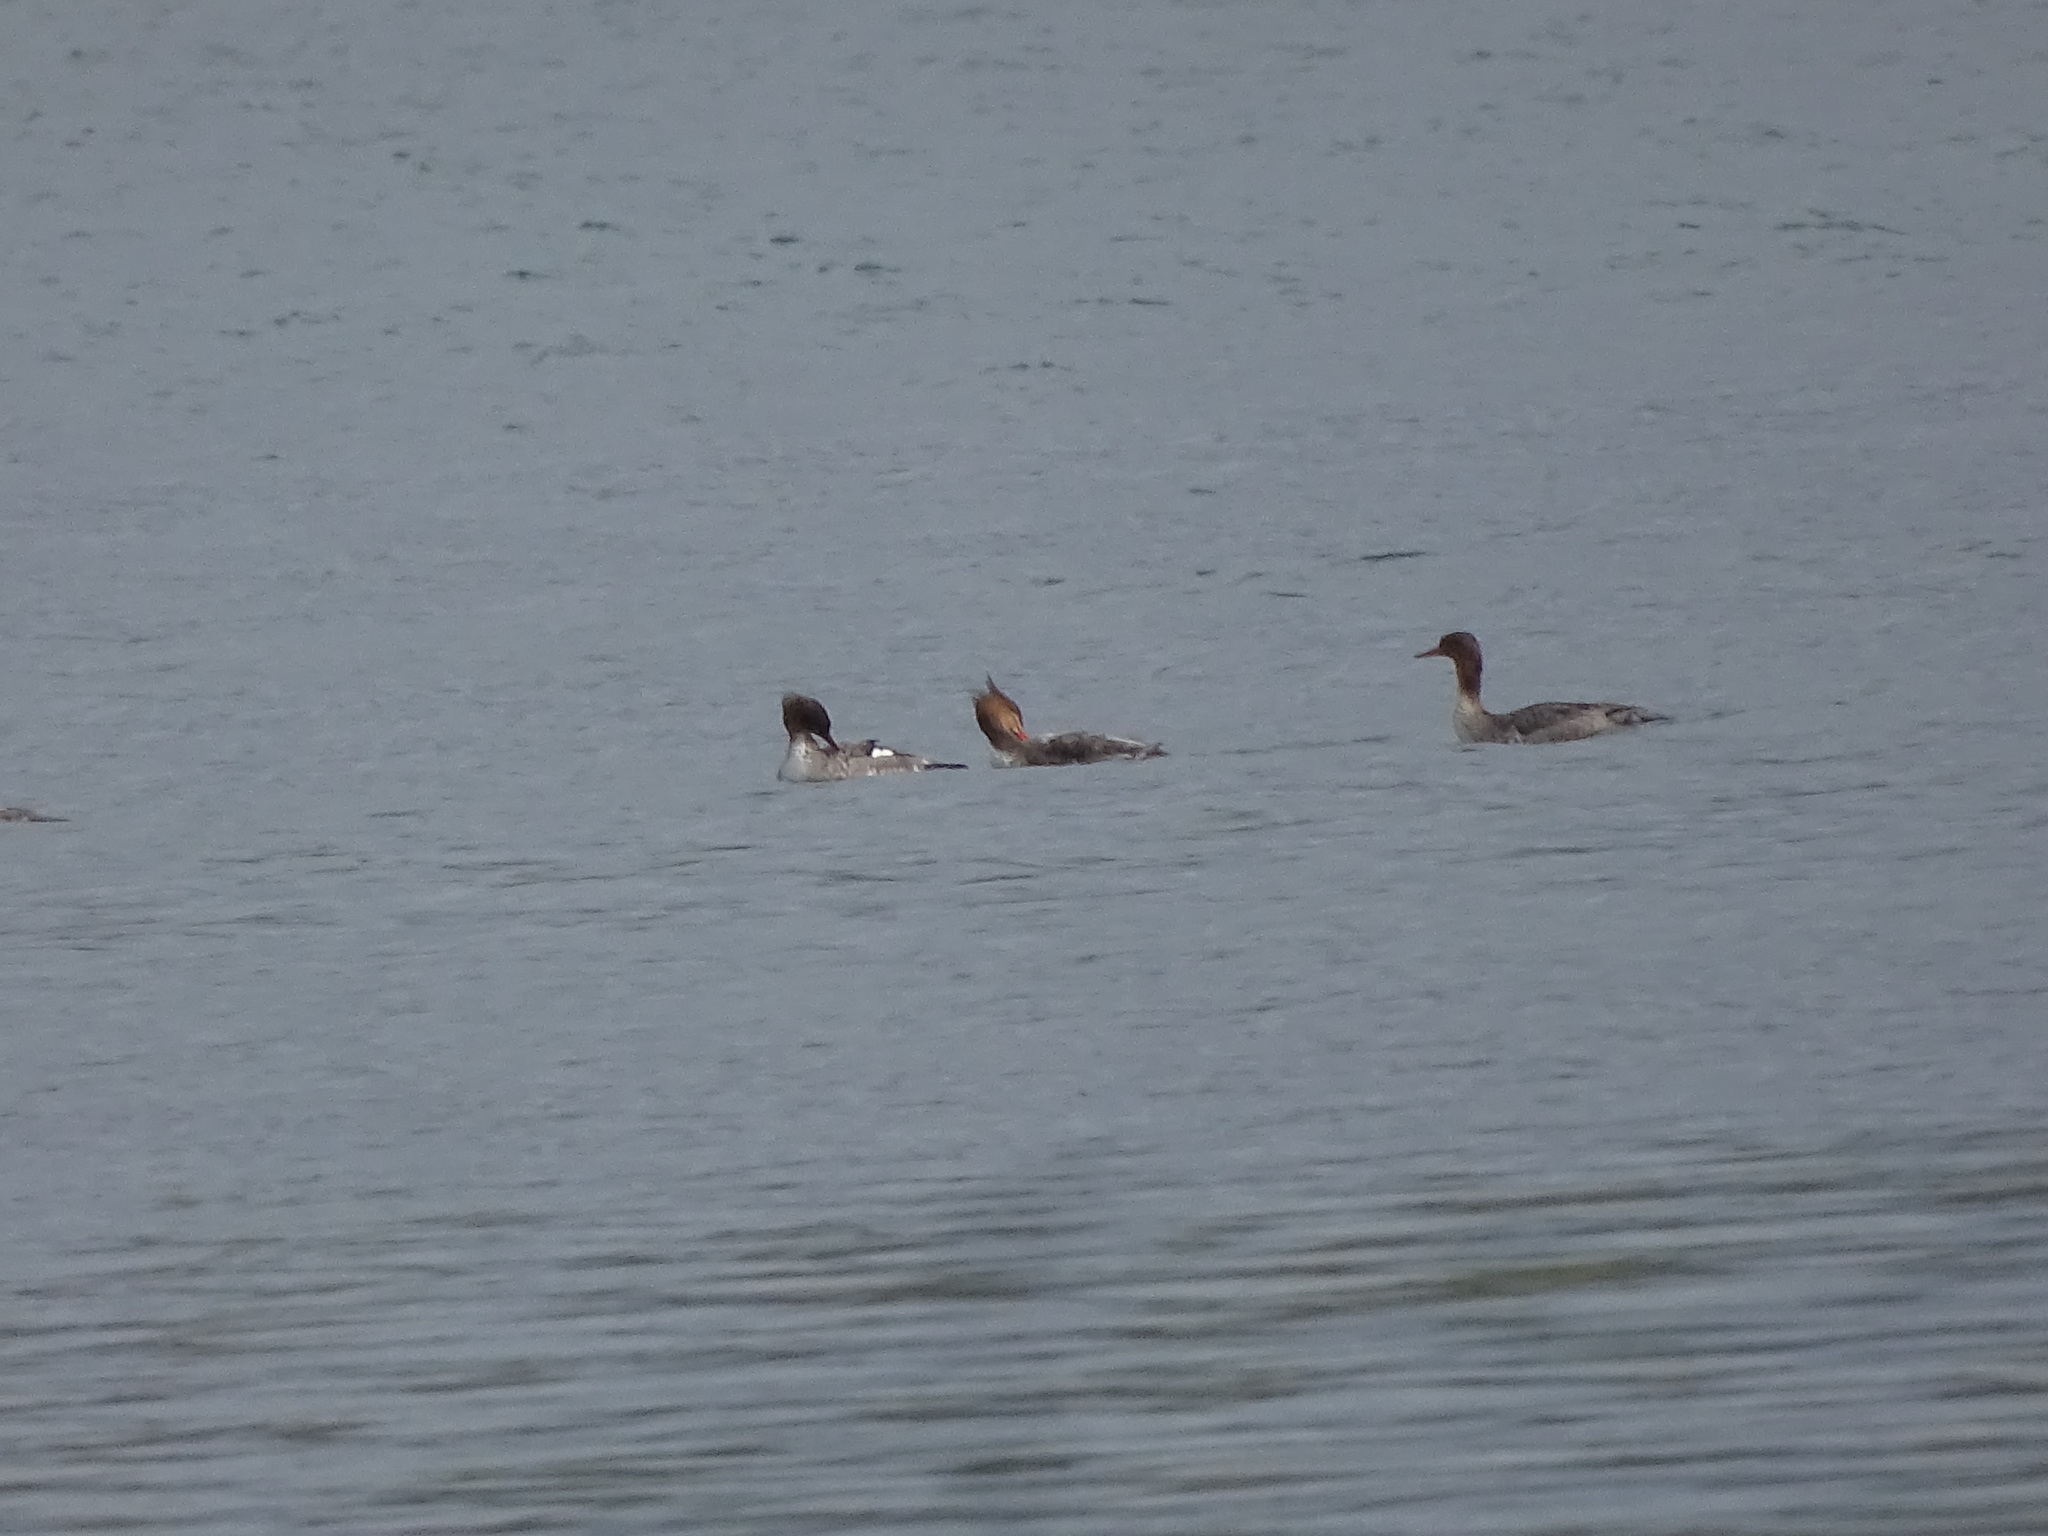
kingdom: Animalia
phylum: Chordata
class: Aves
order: Anseriformes
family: Anatidae
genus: Mergus
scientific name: Mergus serrator
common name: Red-breasted merganser
